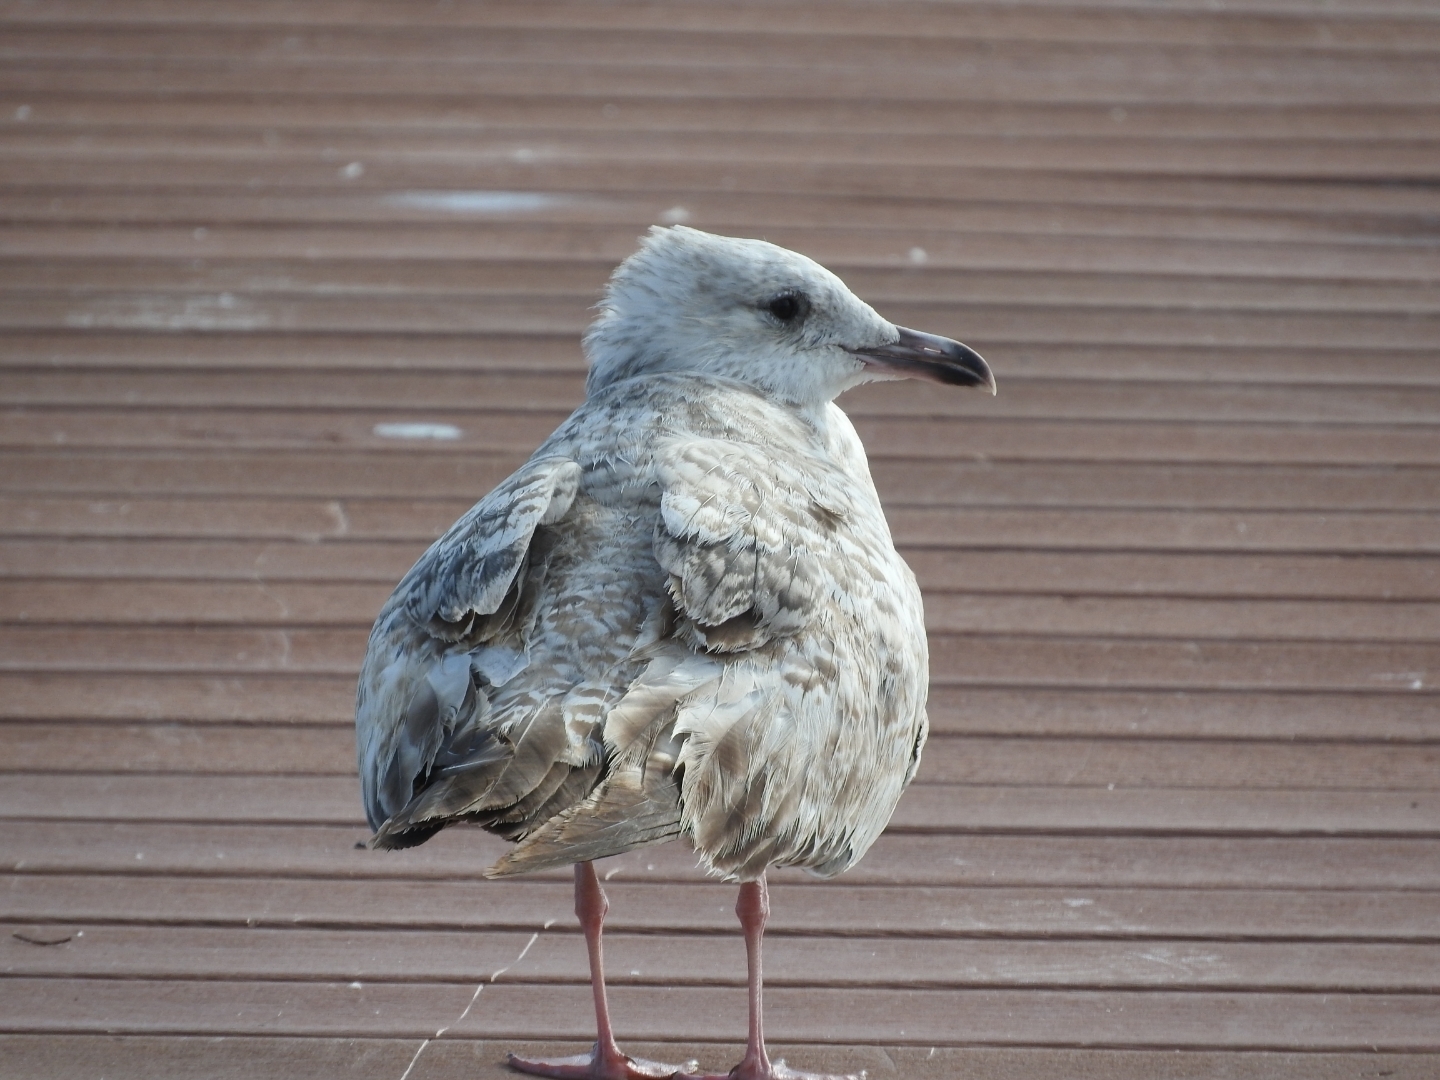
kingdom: Animalia
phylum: Chordata
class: Aves
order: Charadriiformes
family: Laridae
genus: Larus
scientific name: Larus argentatus
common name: Herring gull
